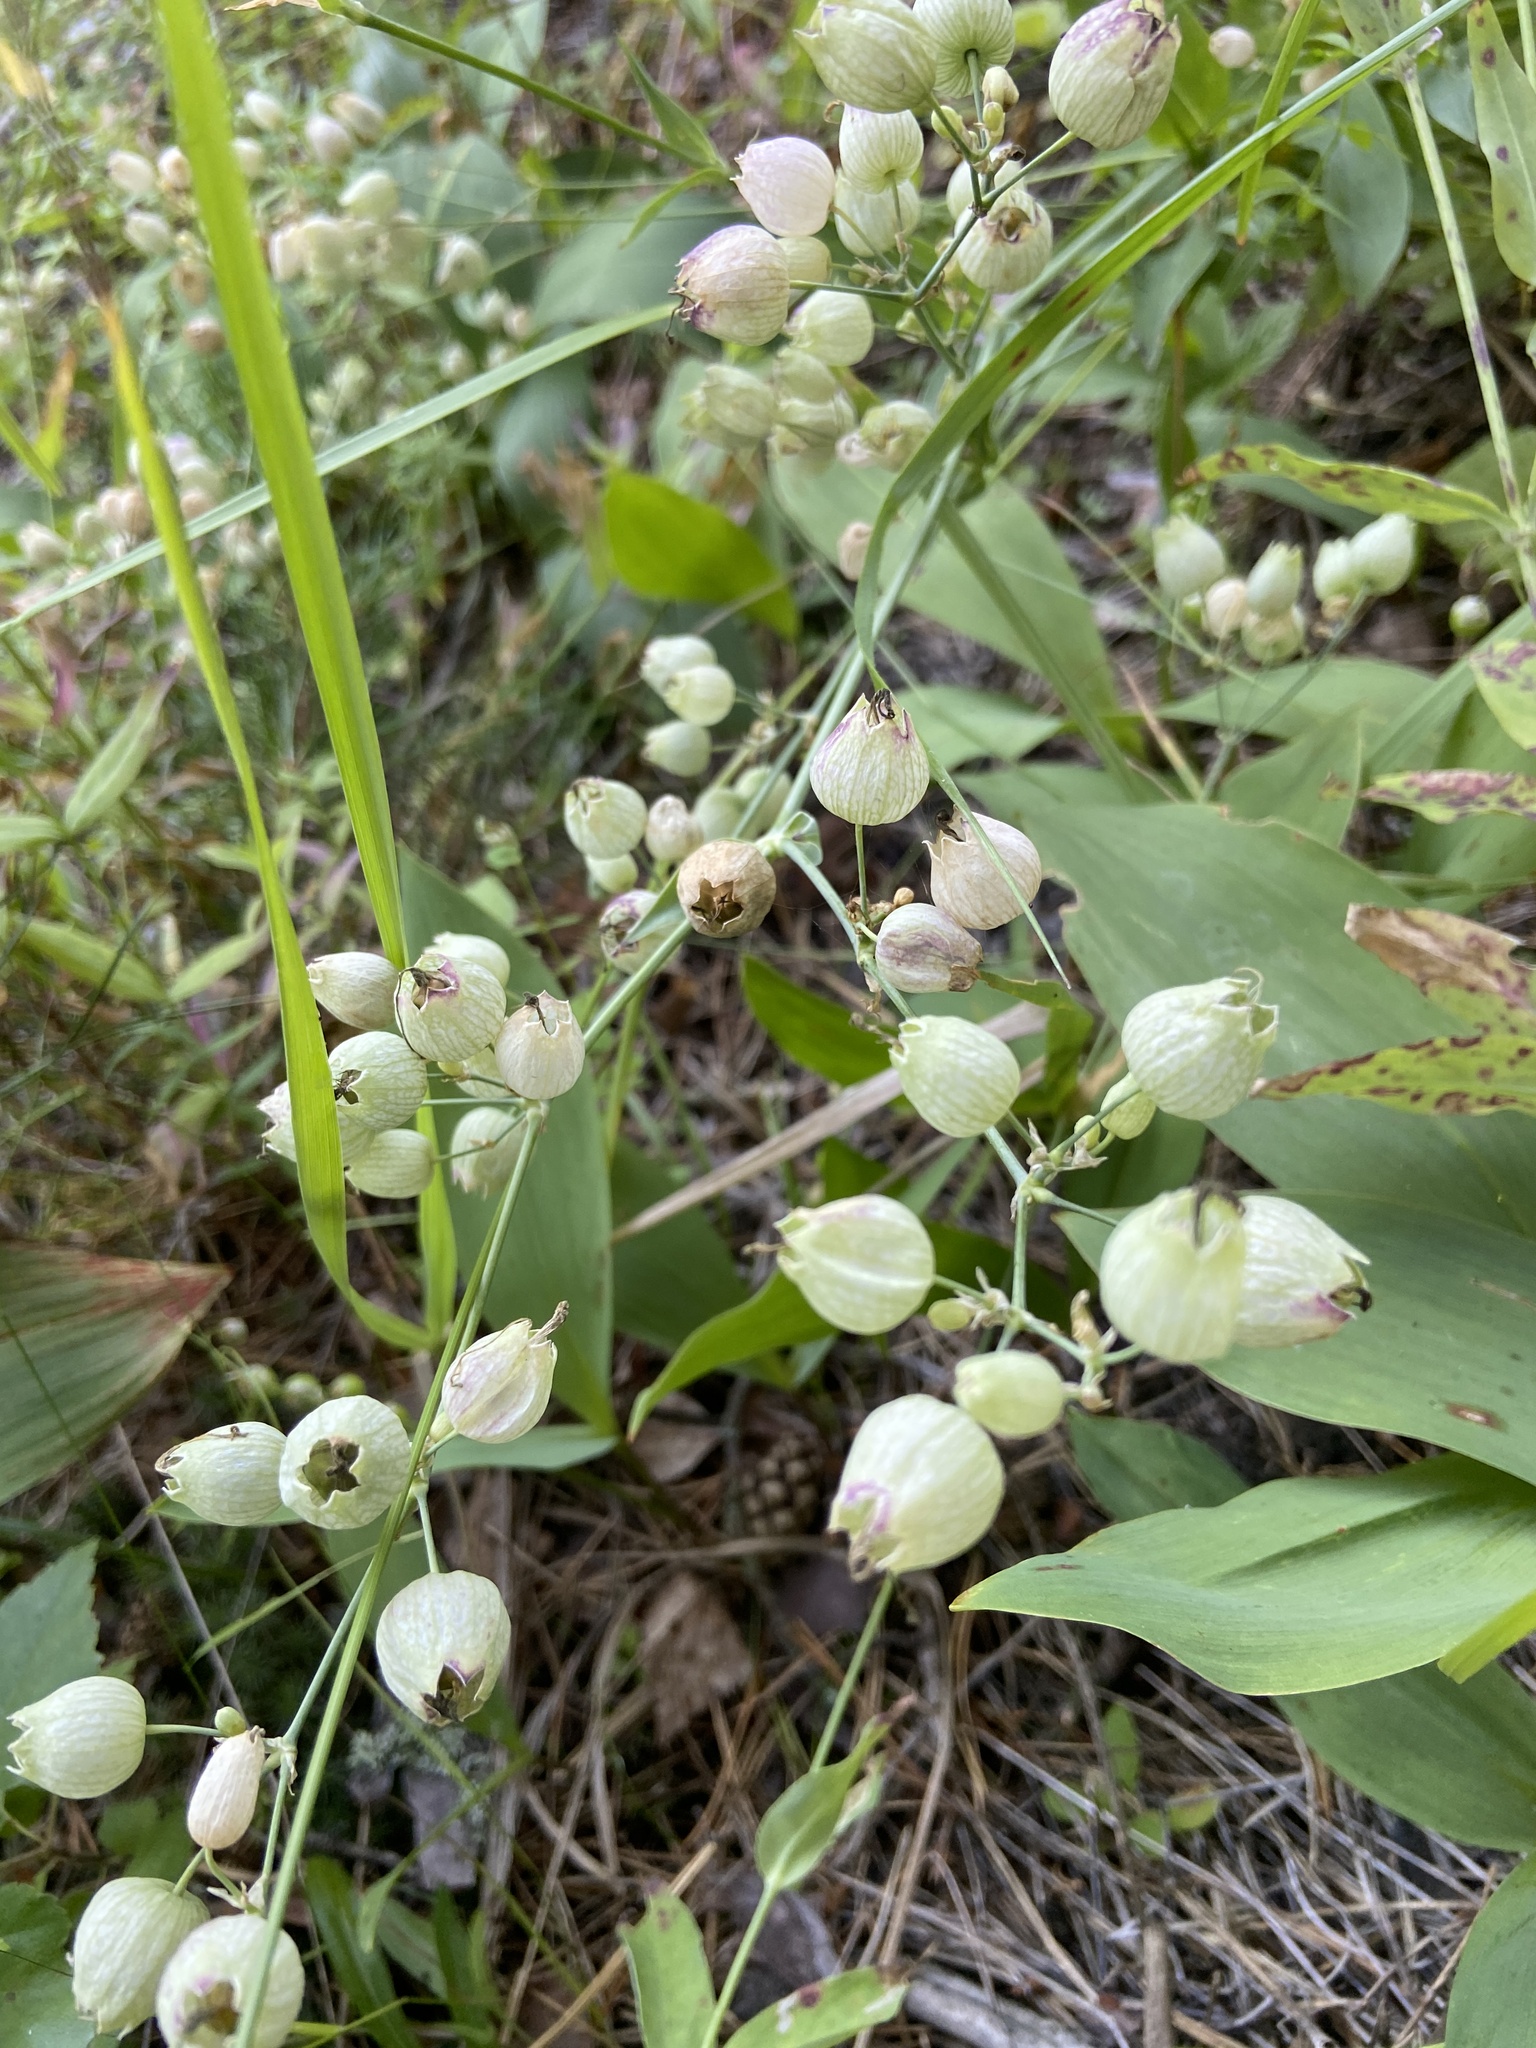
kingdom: Plantae
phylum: Tracheophyta
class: Magnoliopsida
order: Caryophyllales
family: Caryophyllaceae
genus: Silene
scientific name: Silene vulgaris
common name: Bladder campion
